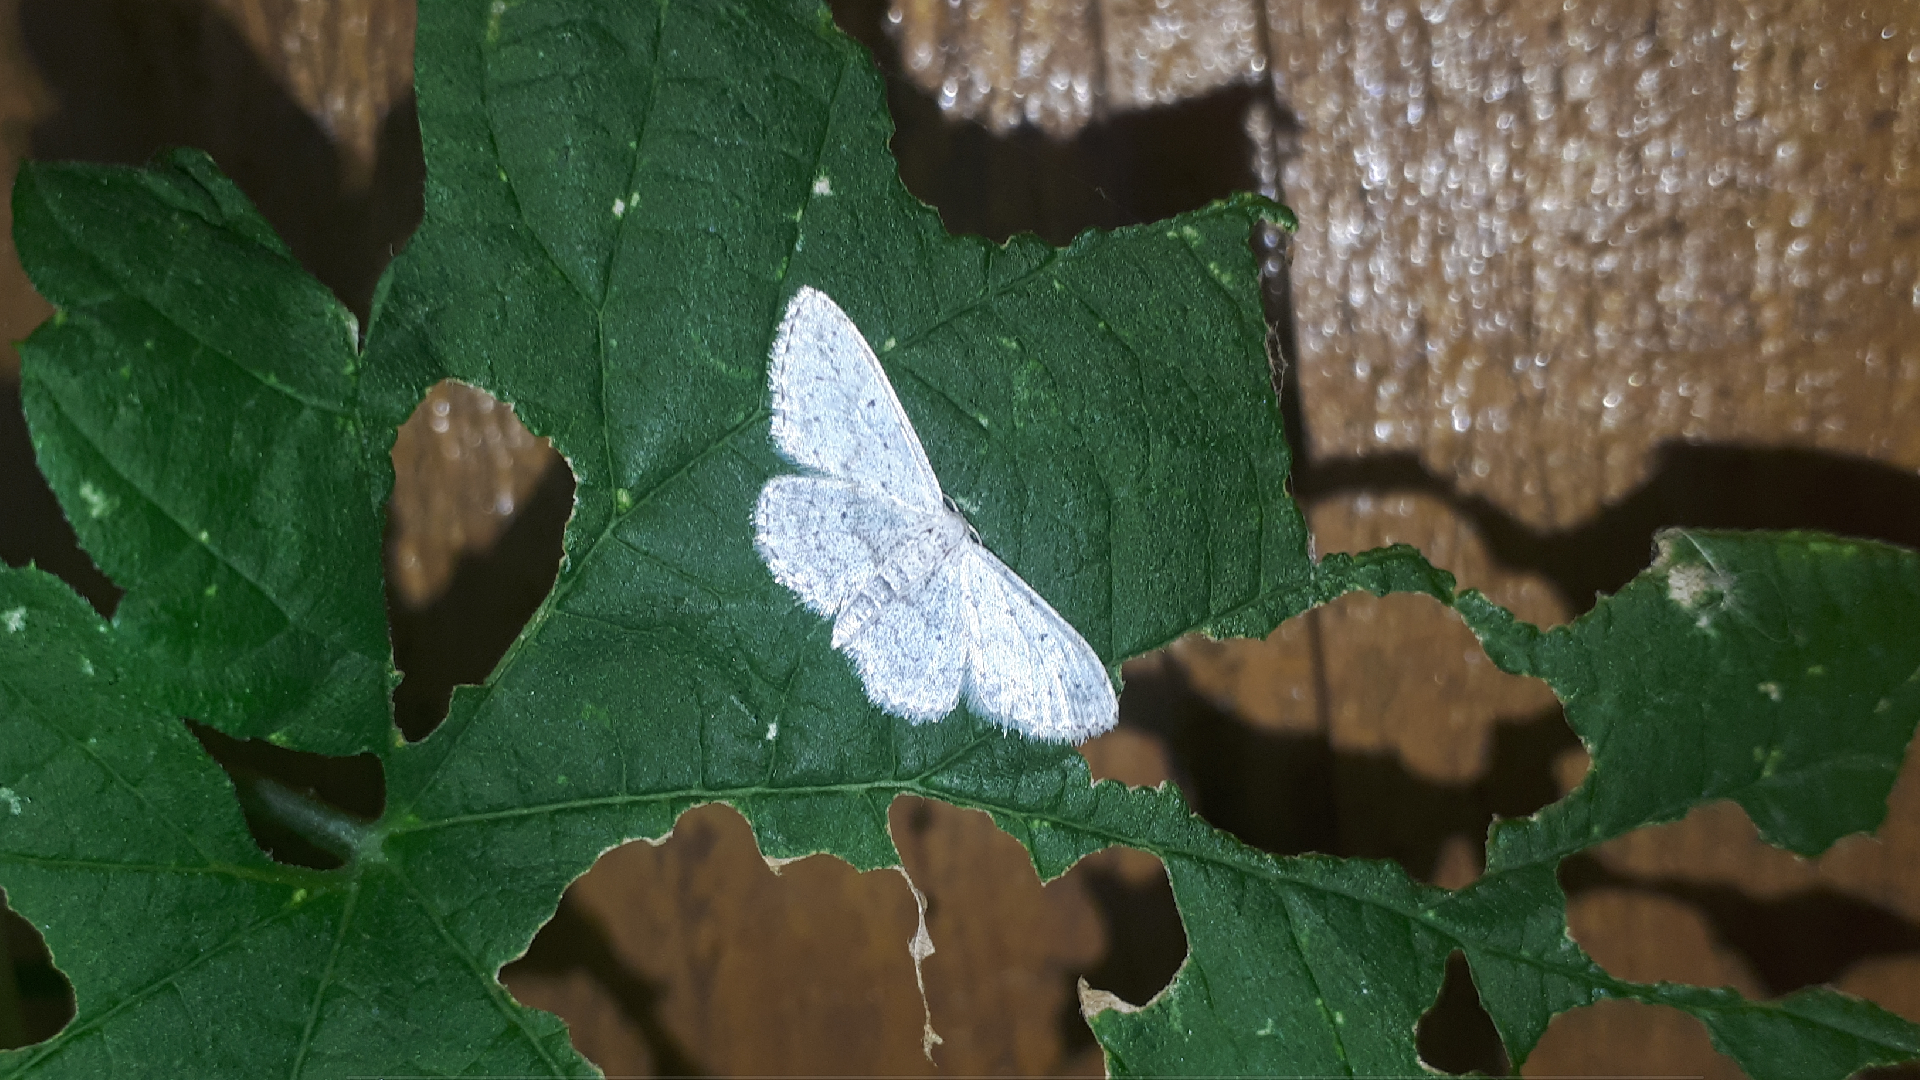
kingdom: Animalia
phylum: Arthropoda
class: Insecta
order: Lepidoptera
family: Geometridae
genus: Idaea
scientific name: Idaea seriata
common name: Small dusty wave
